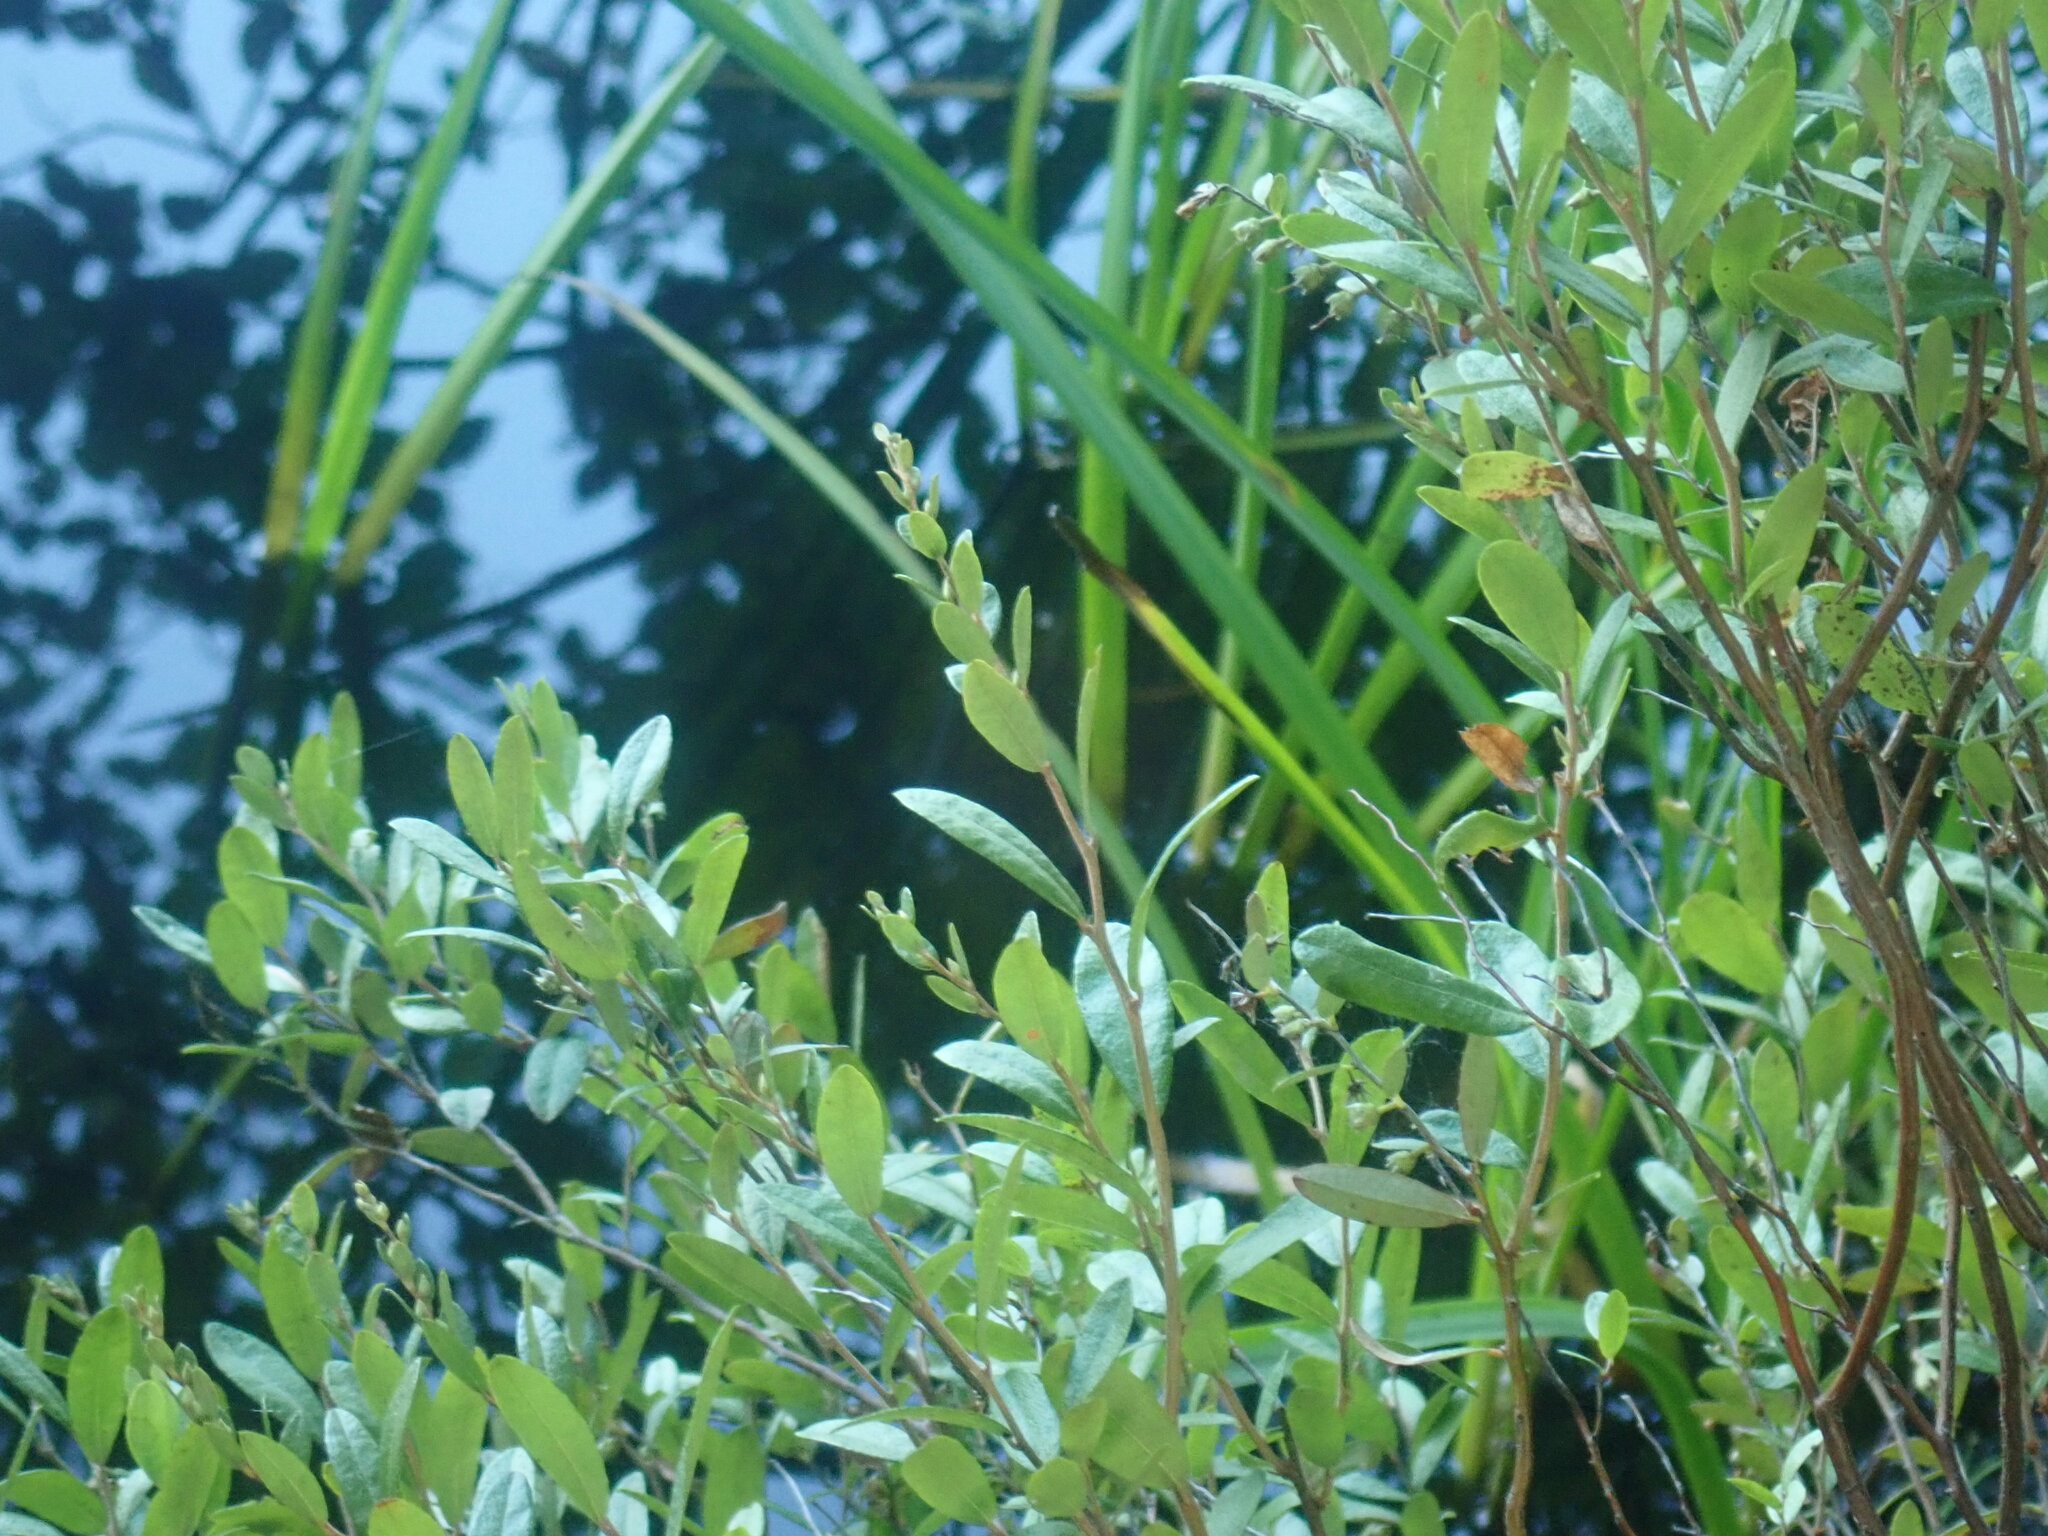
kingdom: Plantae
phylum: Tracheophyta
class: Magnoliopsida
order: Ericales
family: Ericaceae
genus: Chamaedaphne
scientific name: Chamaedaphne calyculata
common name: Leatherleaf
